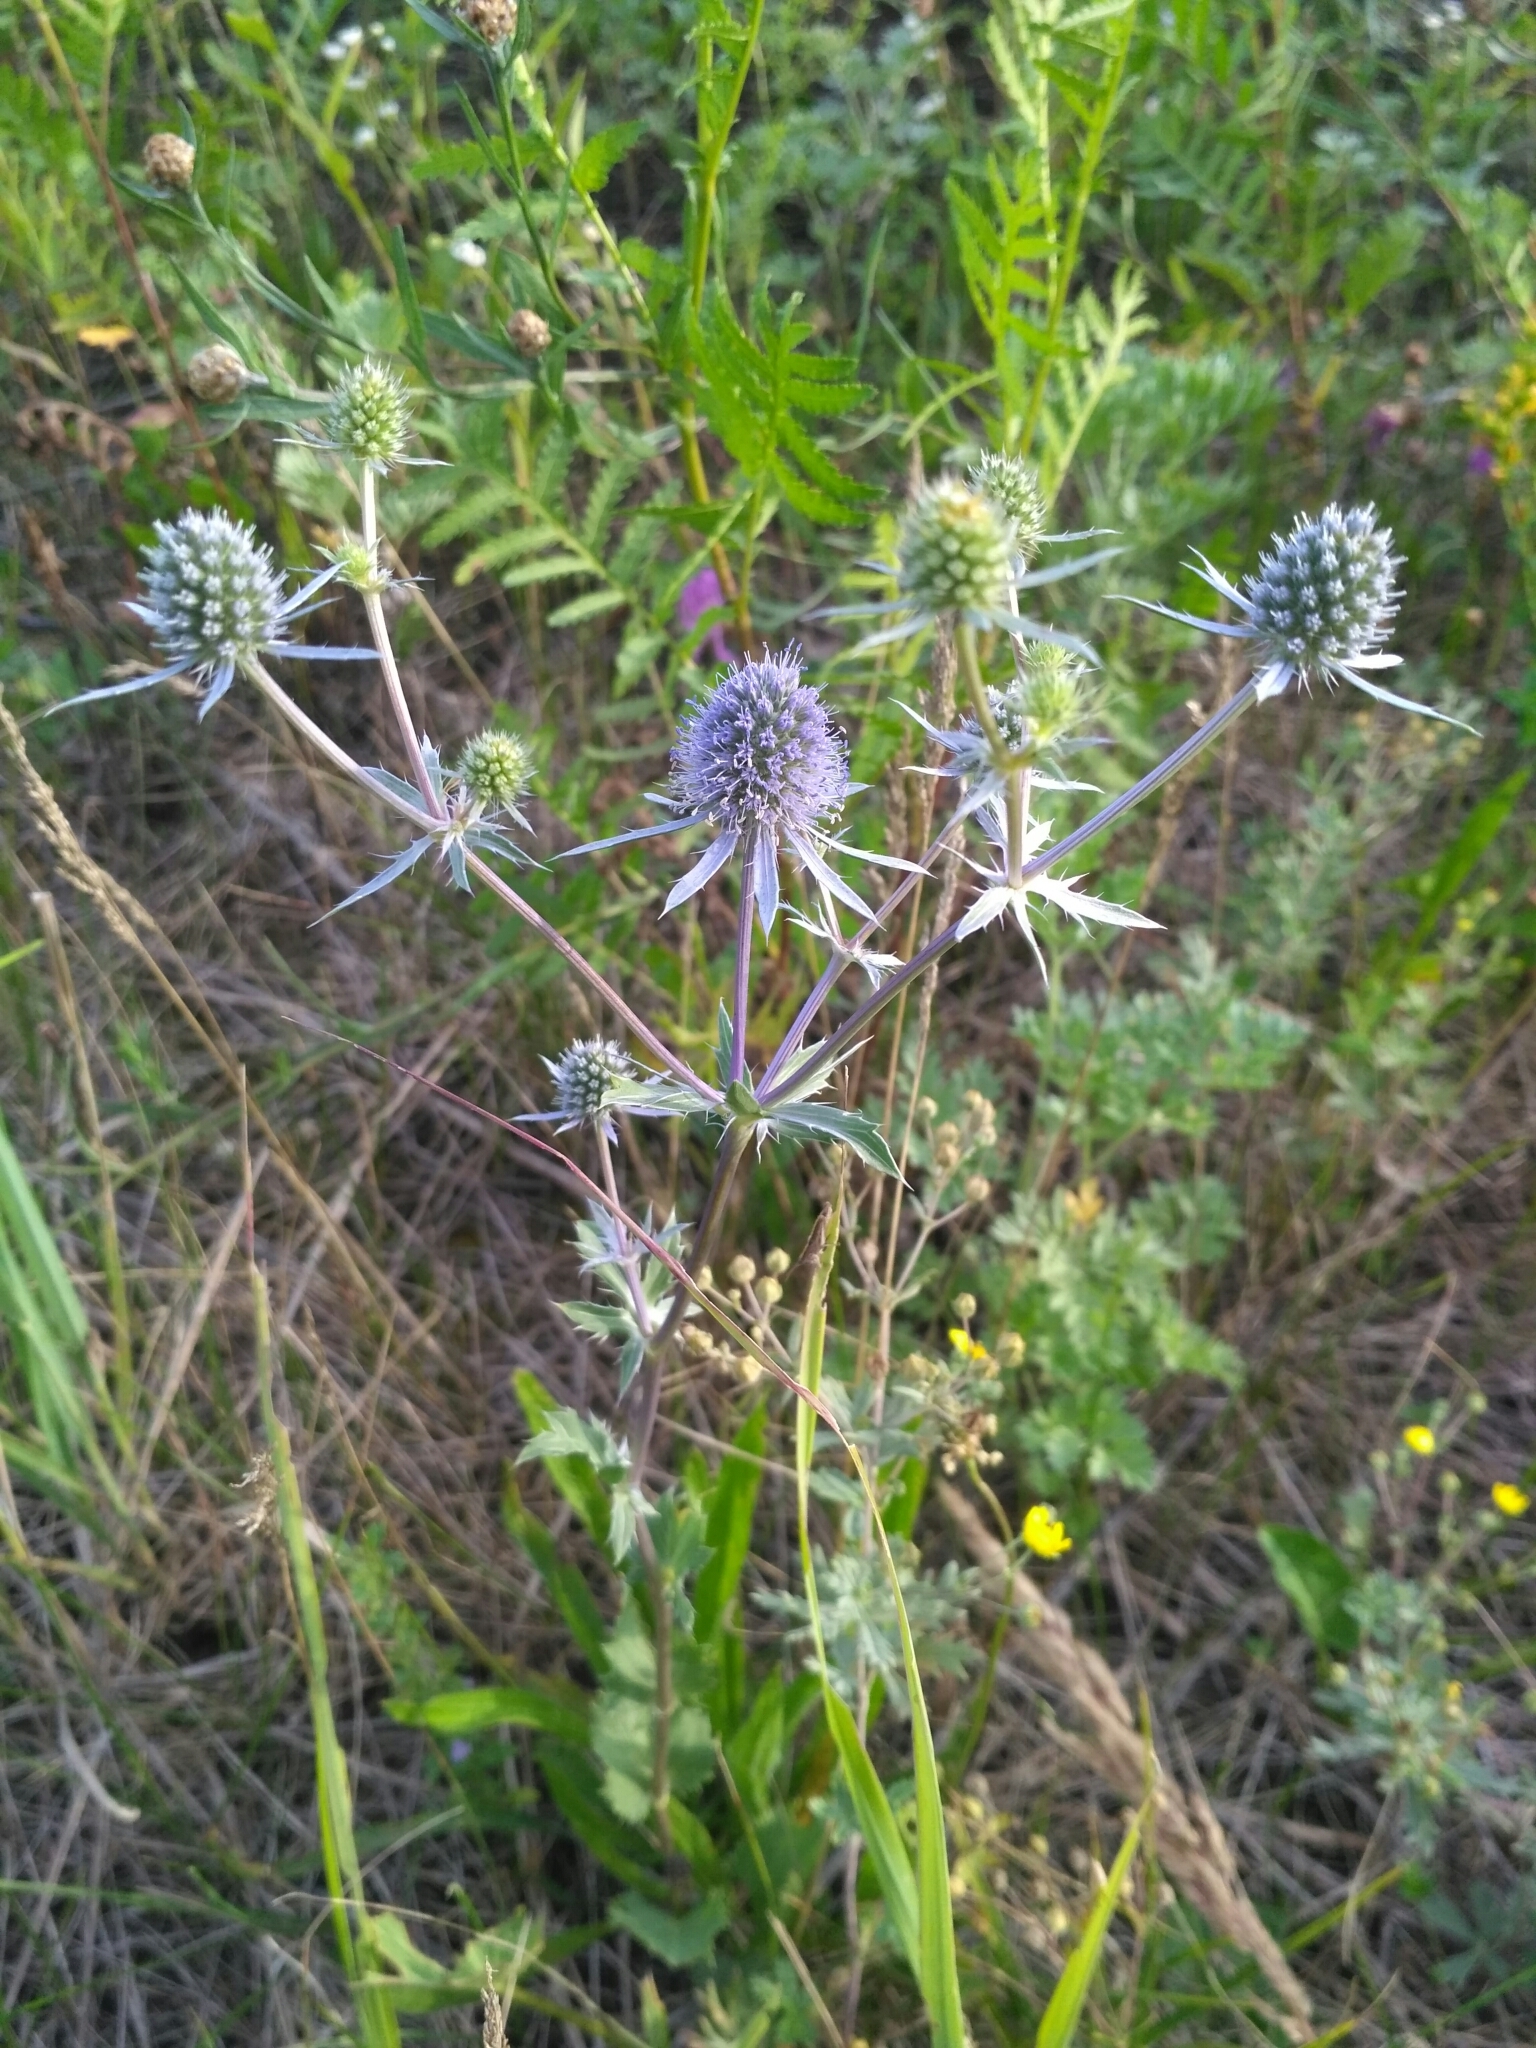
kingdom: Plantae
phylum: Tracheophyta
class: Magnoliopsida
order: Apiales
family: Apiaceae
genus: Eryngium
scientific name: Eryngium planum
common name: Blue eryngo
